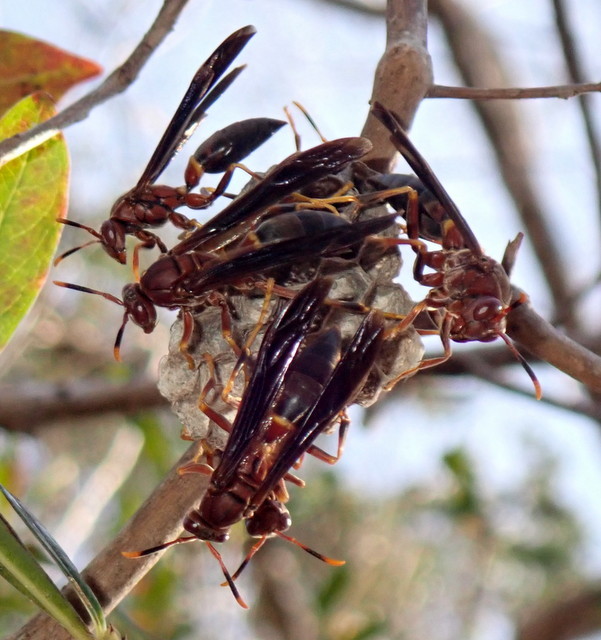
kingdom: Animalia
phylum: Arthropoda
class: Insecta
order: Hymenoptera
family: Eumenidae
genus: Polistes
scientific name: Polistes annularis
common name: Ringed paper wasp
